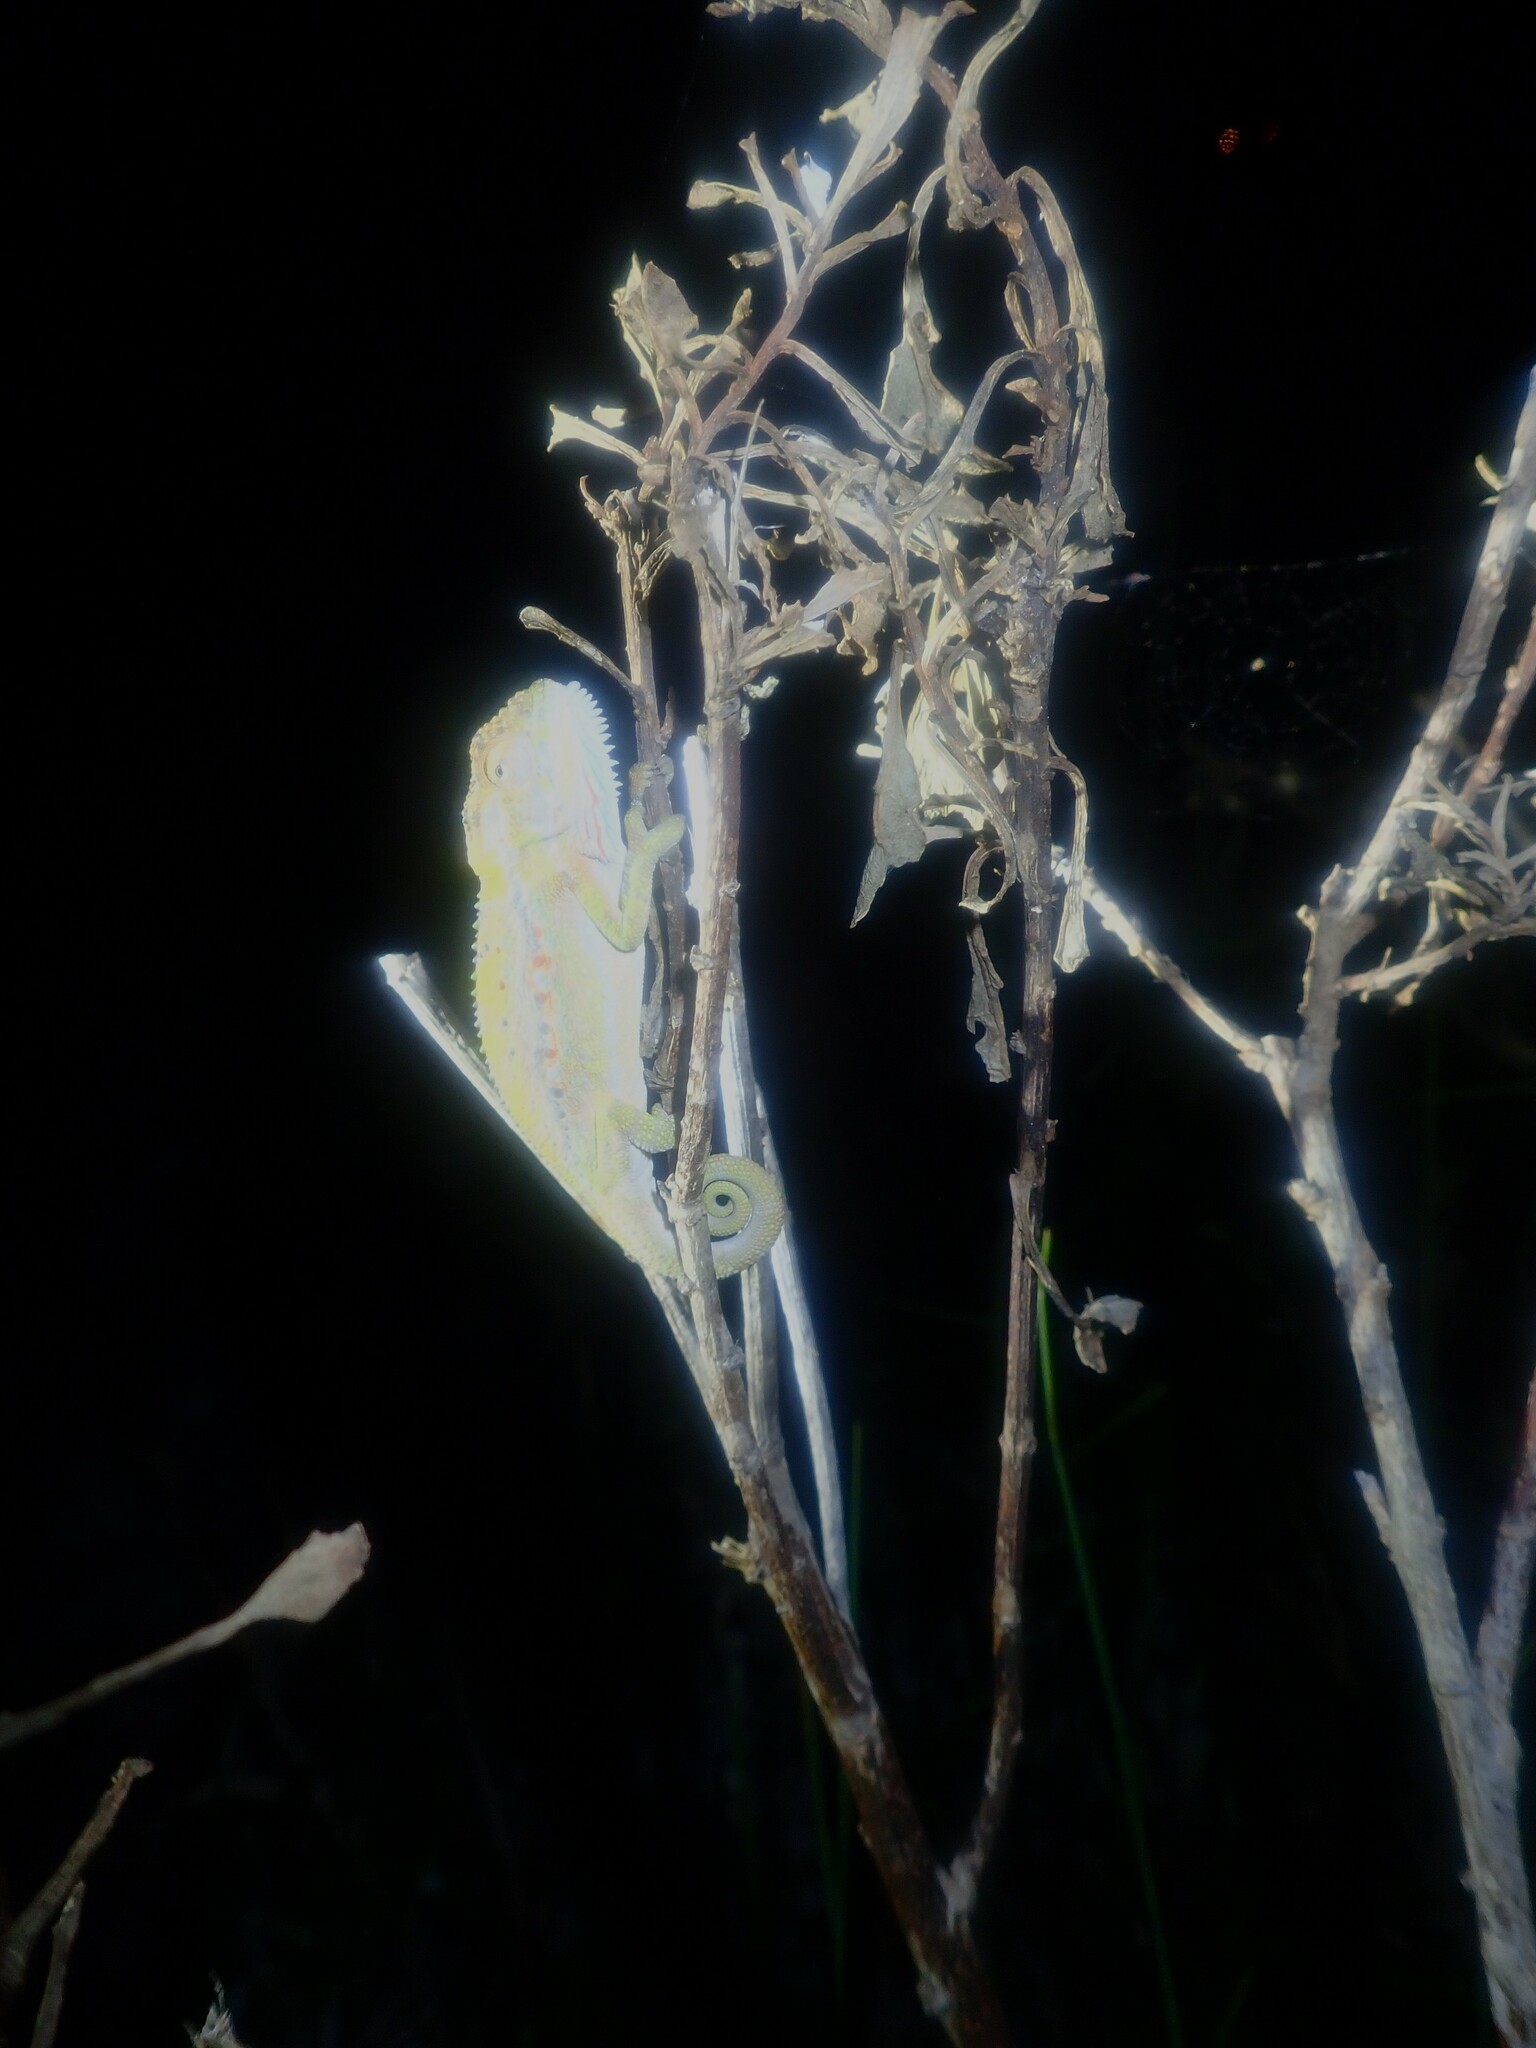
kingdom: Animalia
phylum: Chordata
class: Squamata
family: Chamaeleonidae
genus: Bradypodion
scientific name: Bradypodion pumilum
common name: Cape dwarf chameleon
